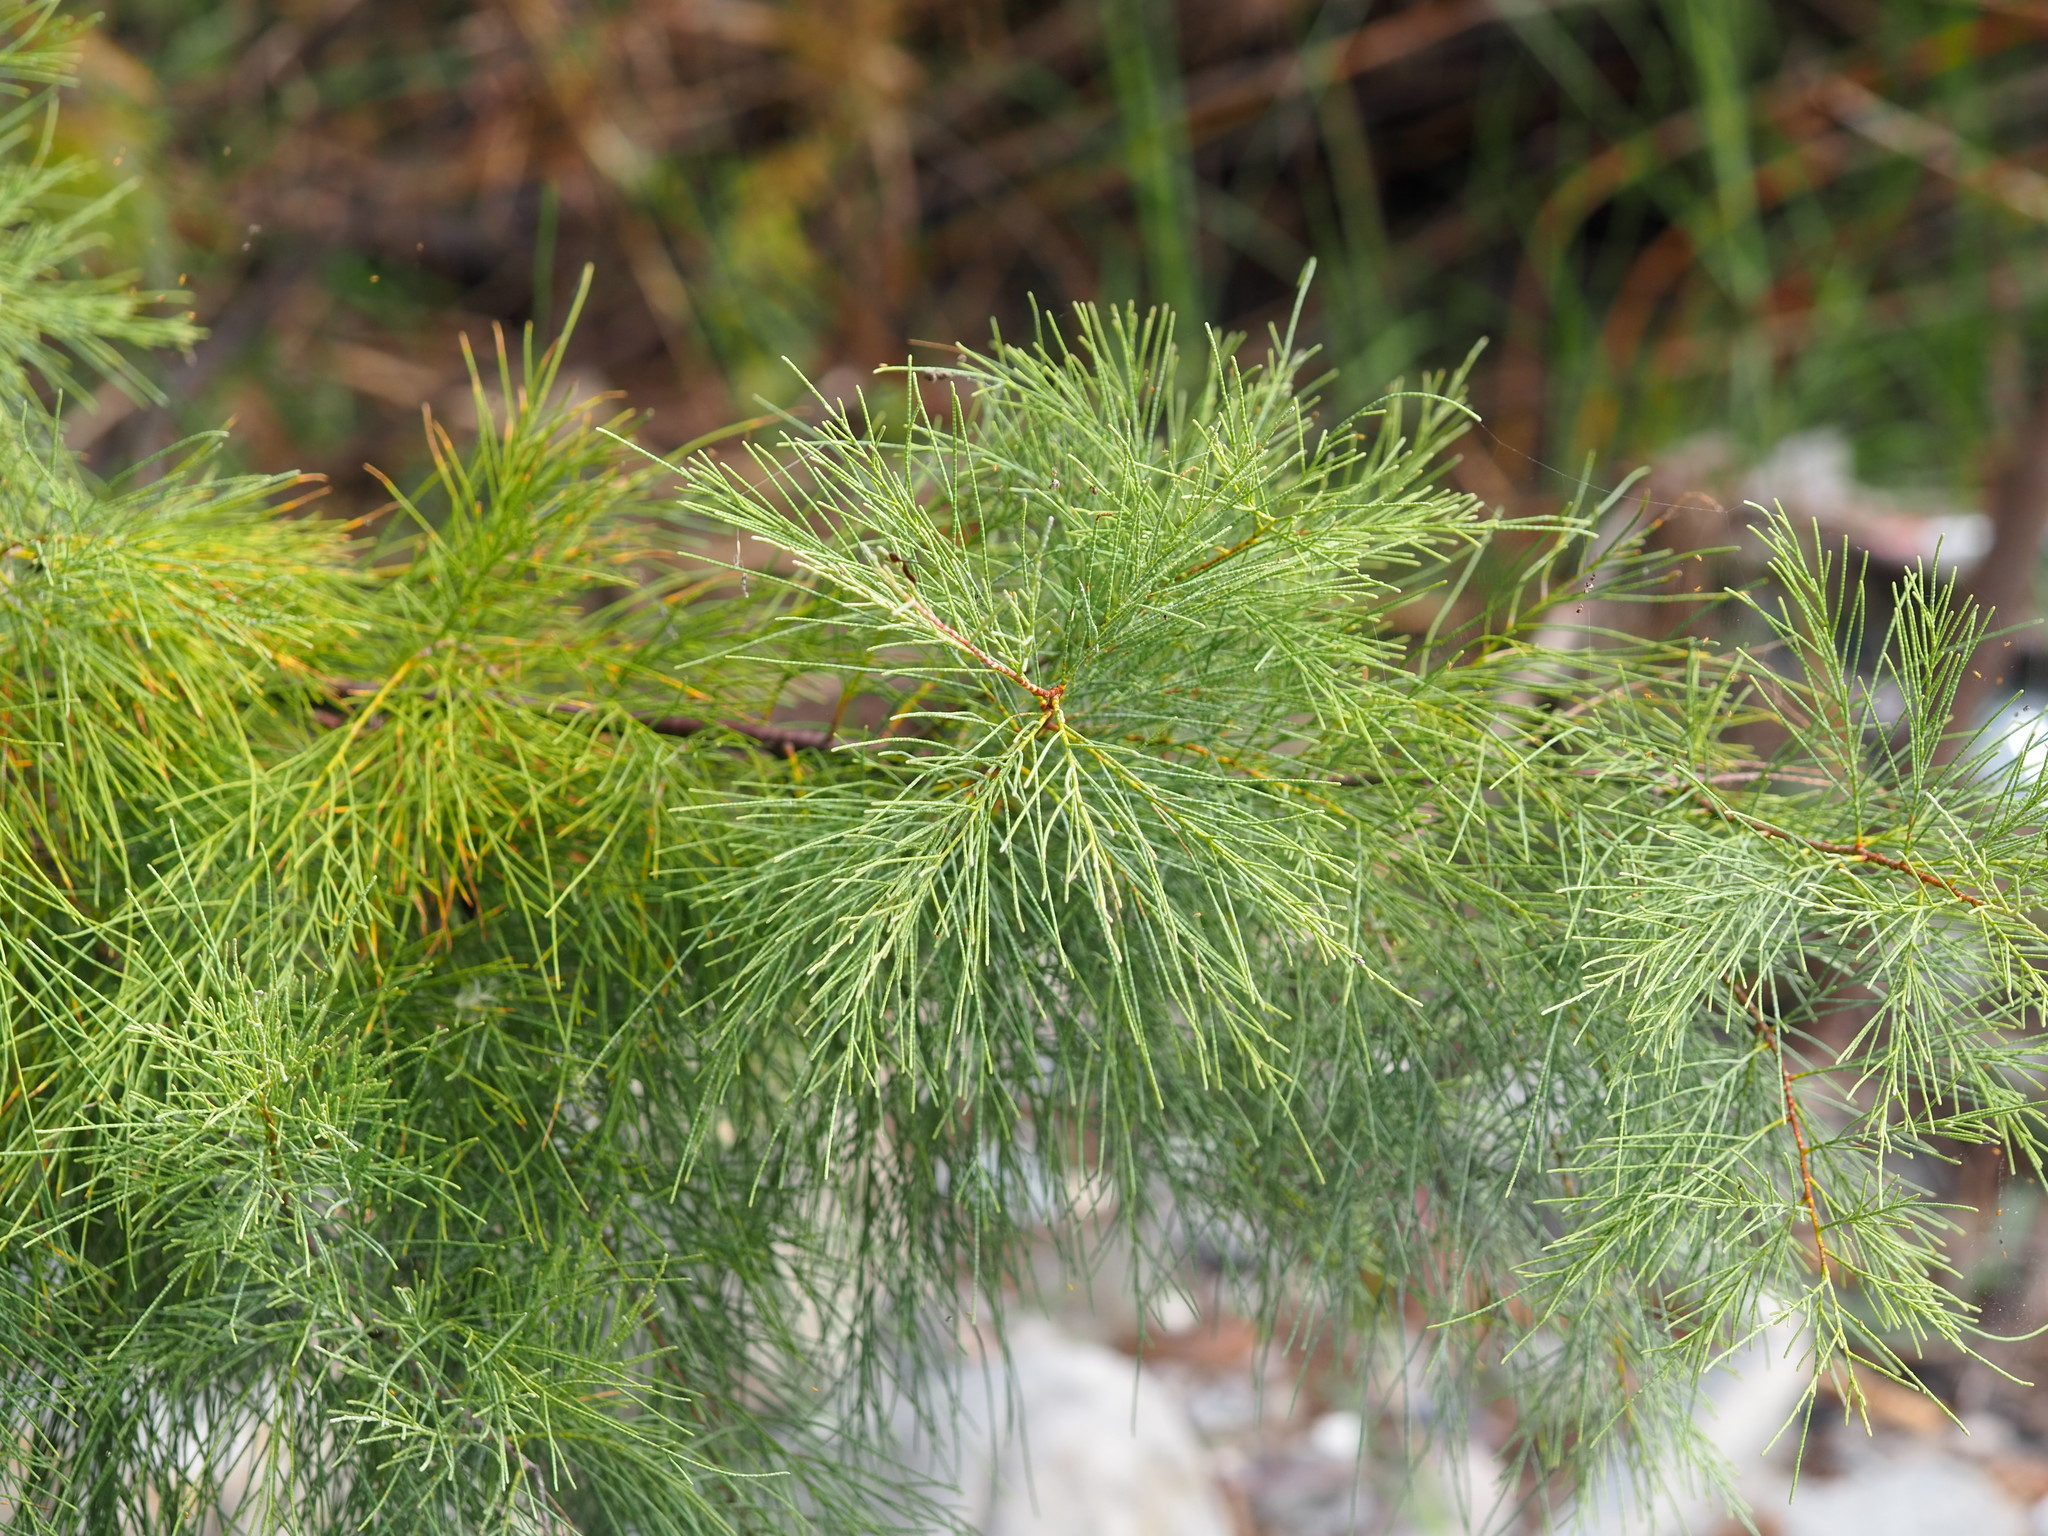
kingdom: Plantae
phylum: Tracheophyta
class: Magnoliopsida
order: Caryophyllales
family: Tamaricaceae
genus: Tamarix
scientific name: Tamarix aphylla
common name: Athel tamarisk
